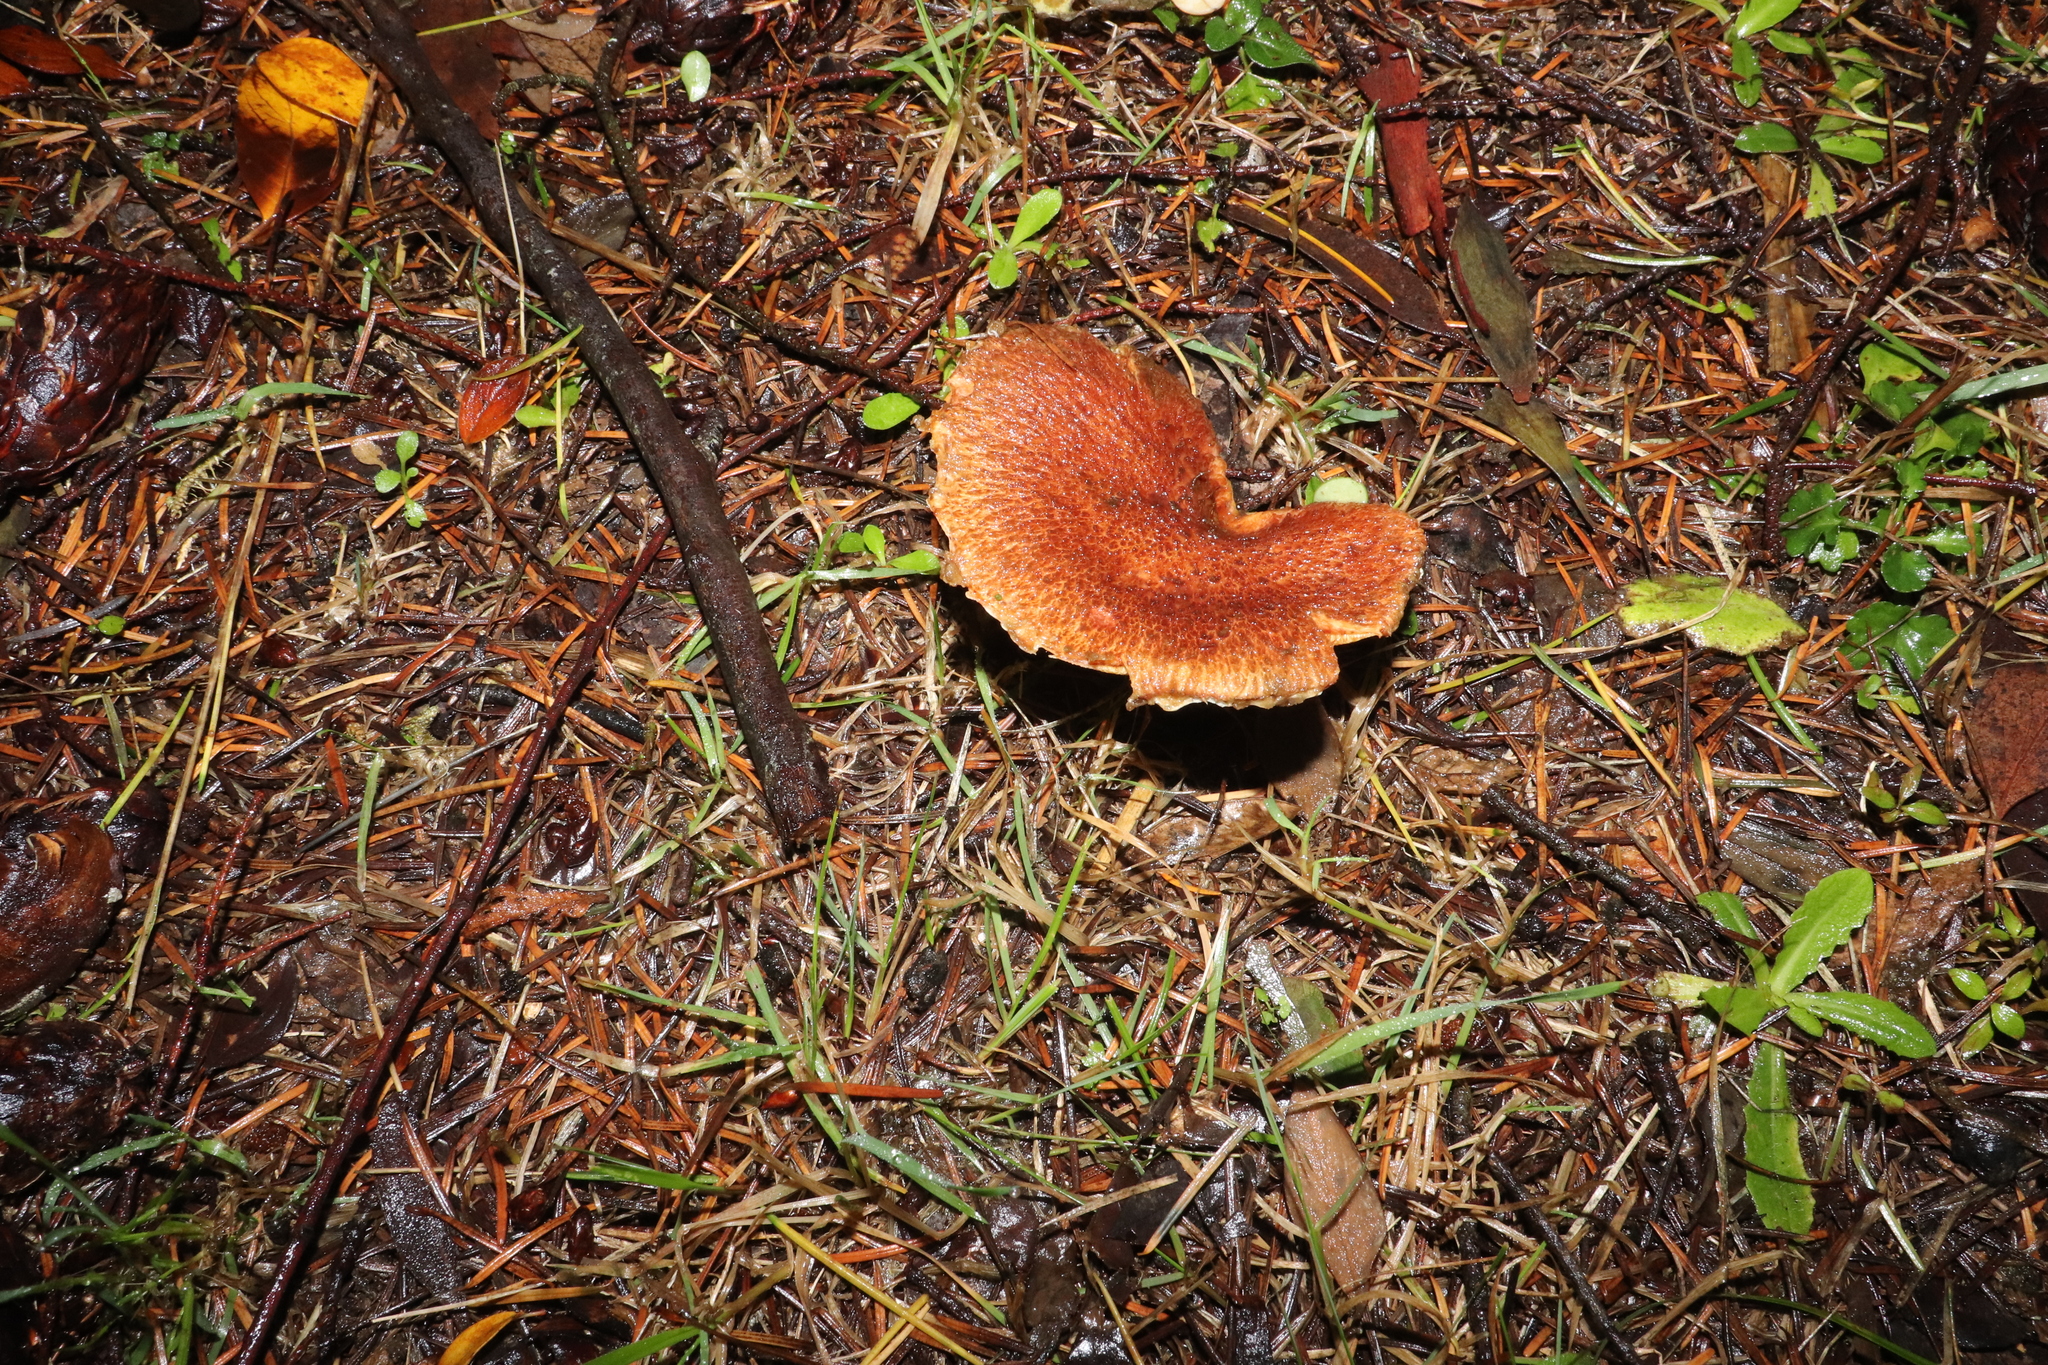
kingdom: Fungi
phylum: Basidiomycota
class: Agaricomycetes
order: Boletales
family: Suillaceae
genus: Suillus
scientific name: Suillus lakei
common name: Western painted suillus
